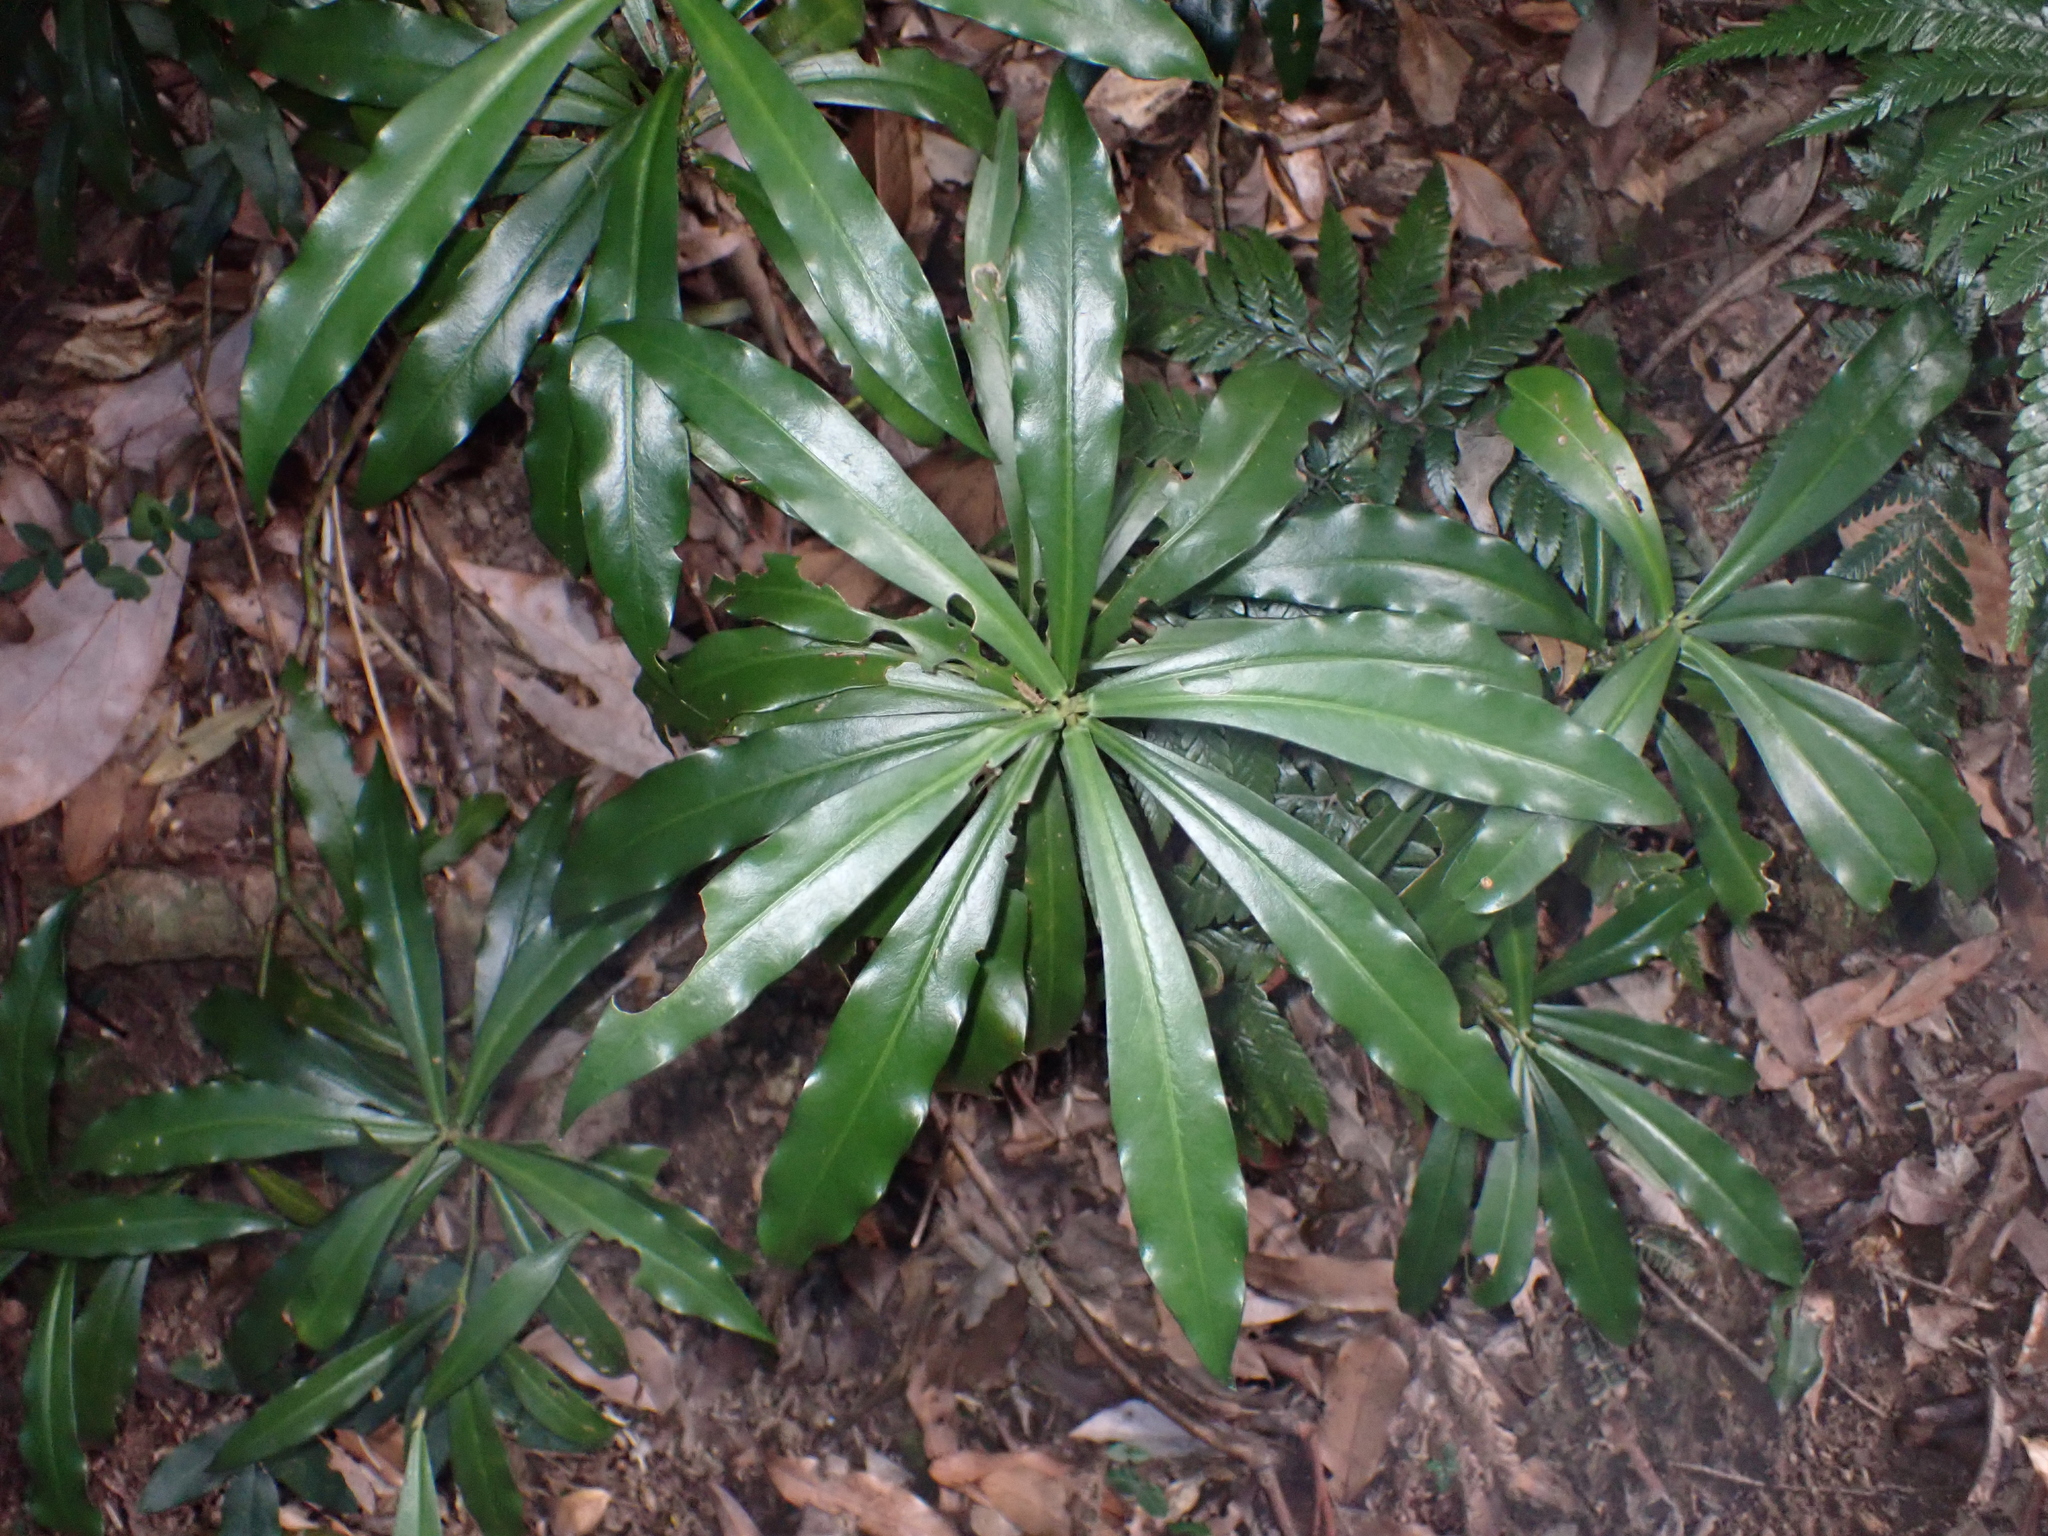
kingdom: Plantae
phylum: Tracheophyta
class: Magnoliopsida
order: Canellales
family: Winteraceae
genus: Drimys
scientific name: Drimys insipida
